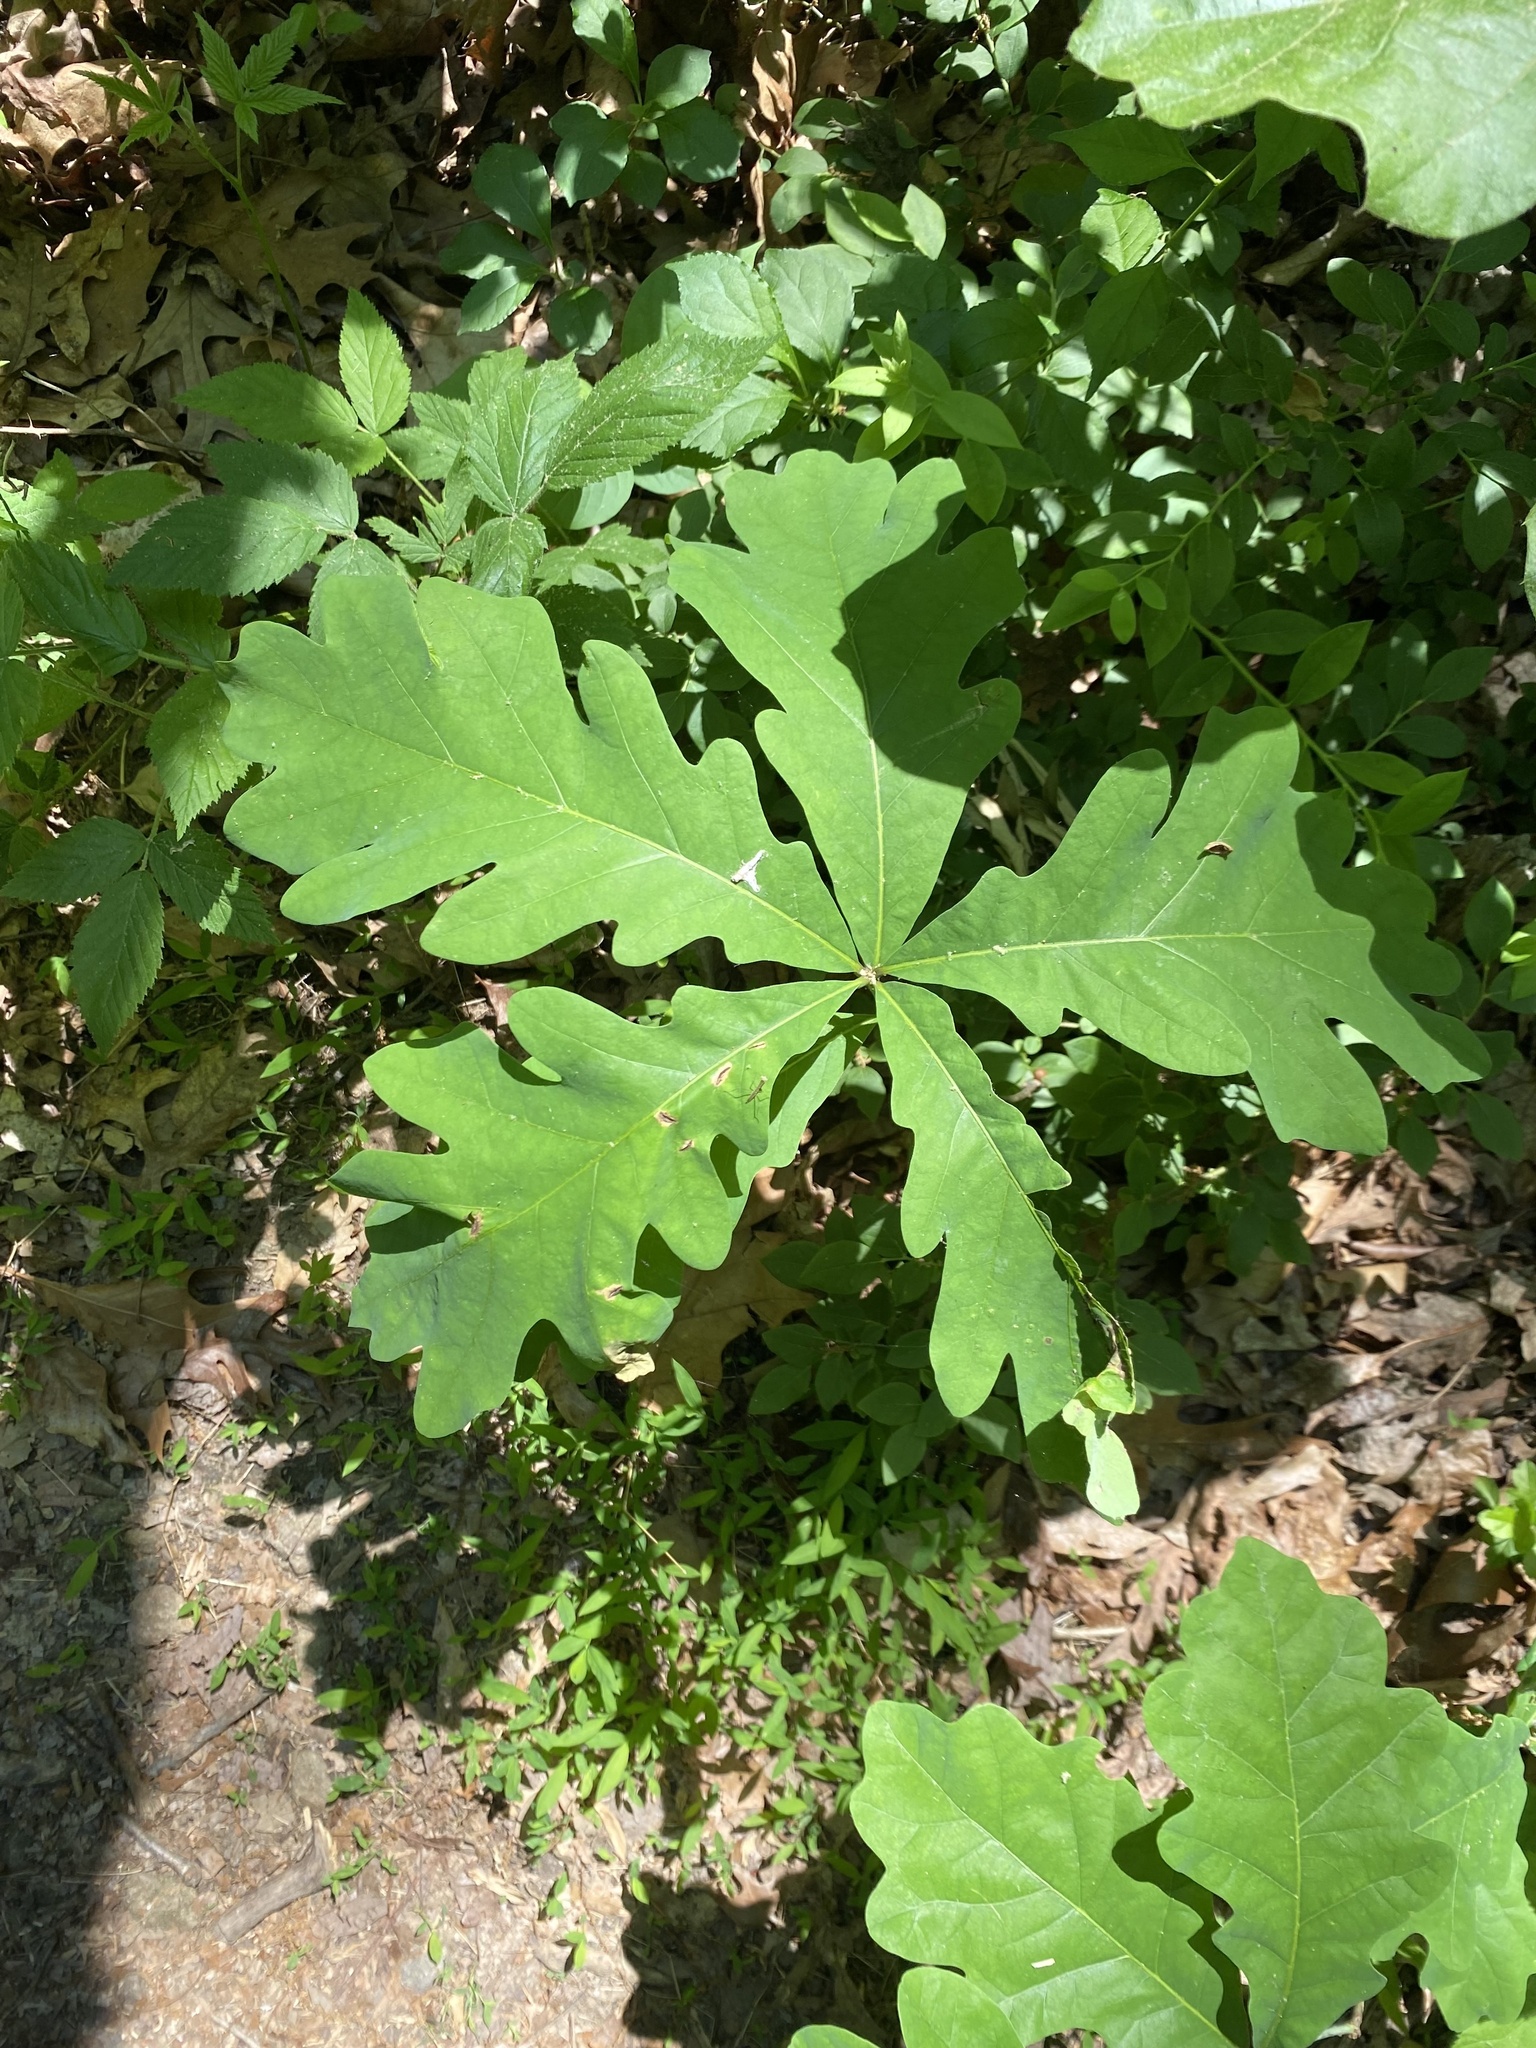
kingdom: Plantae
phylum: Tracheophyta
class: Magnoliopsida
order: Fagales
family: Fagaceae
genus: Quercus
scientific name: Quercus alba
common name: White oak
